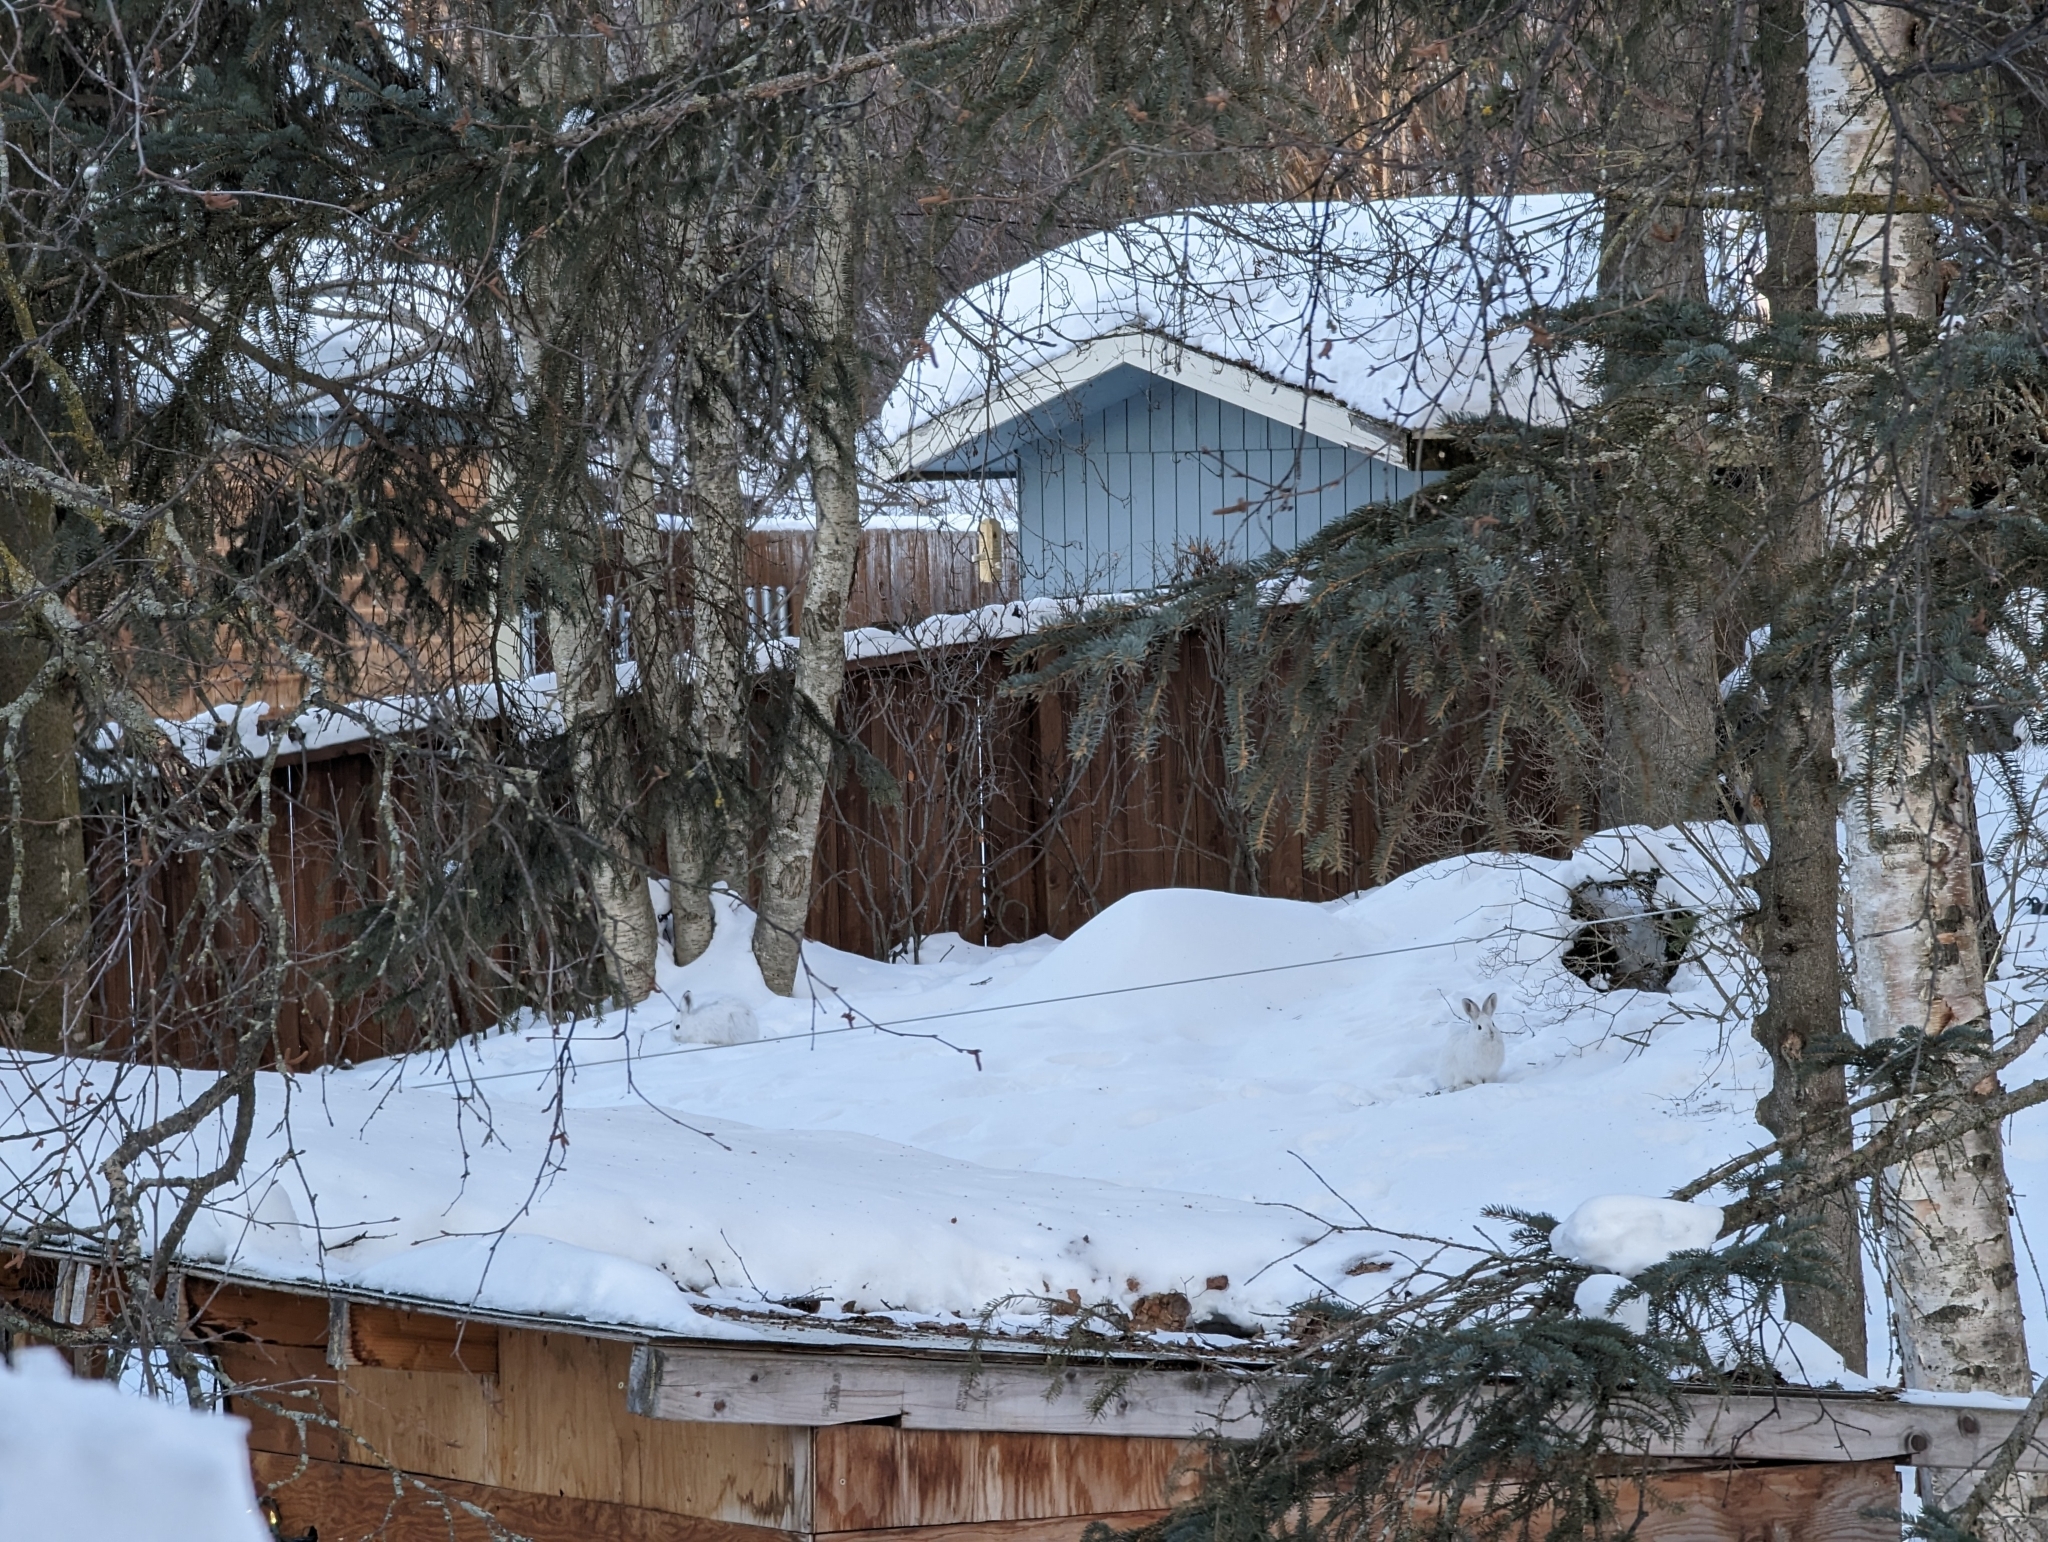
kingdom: Animalia
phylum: Chordata
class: Mammalia
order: Lagomorpha
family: Leporidae
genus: Lepus
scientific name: Lepus americanus
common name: Snowshoe hare
